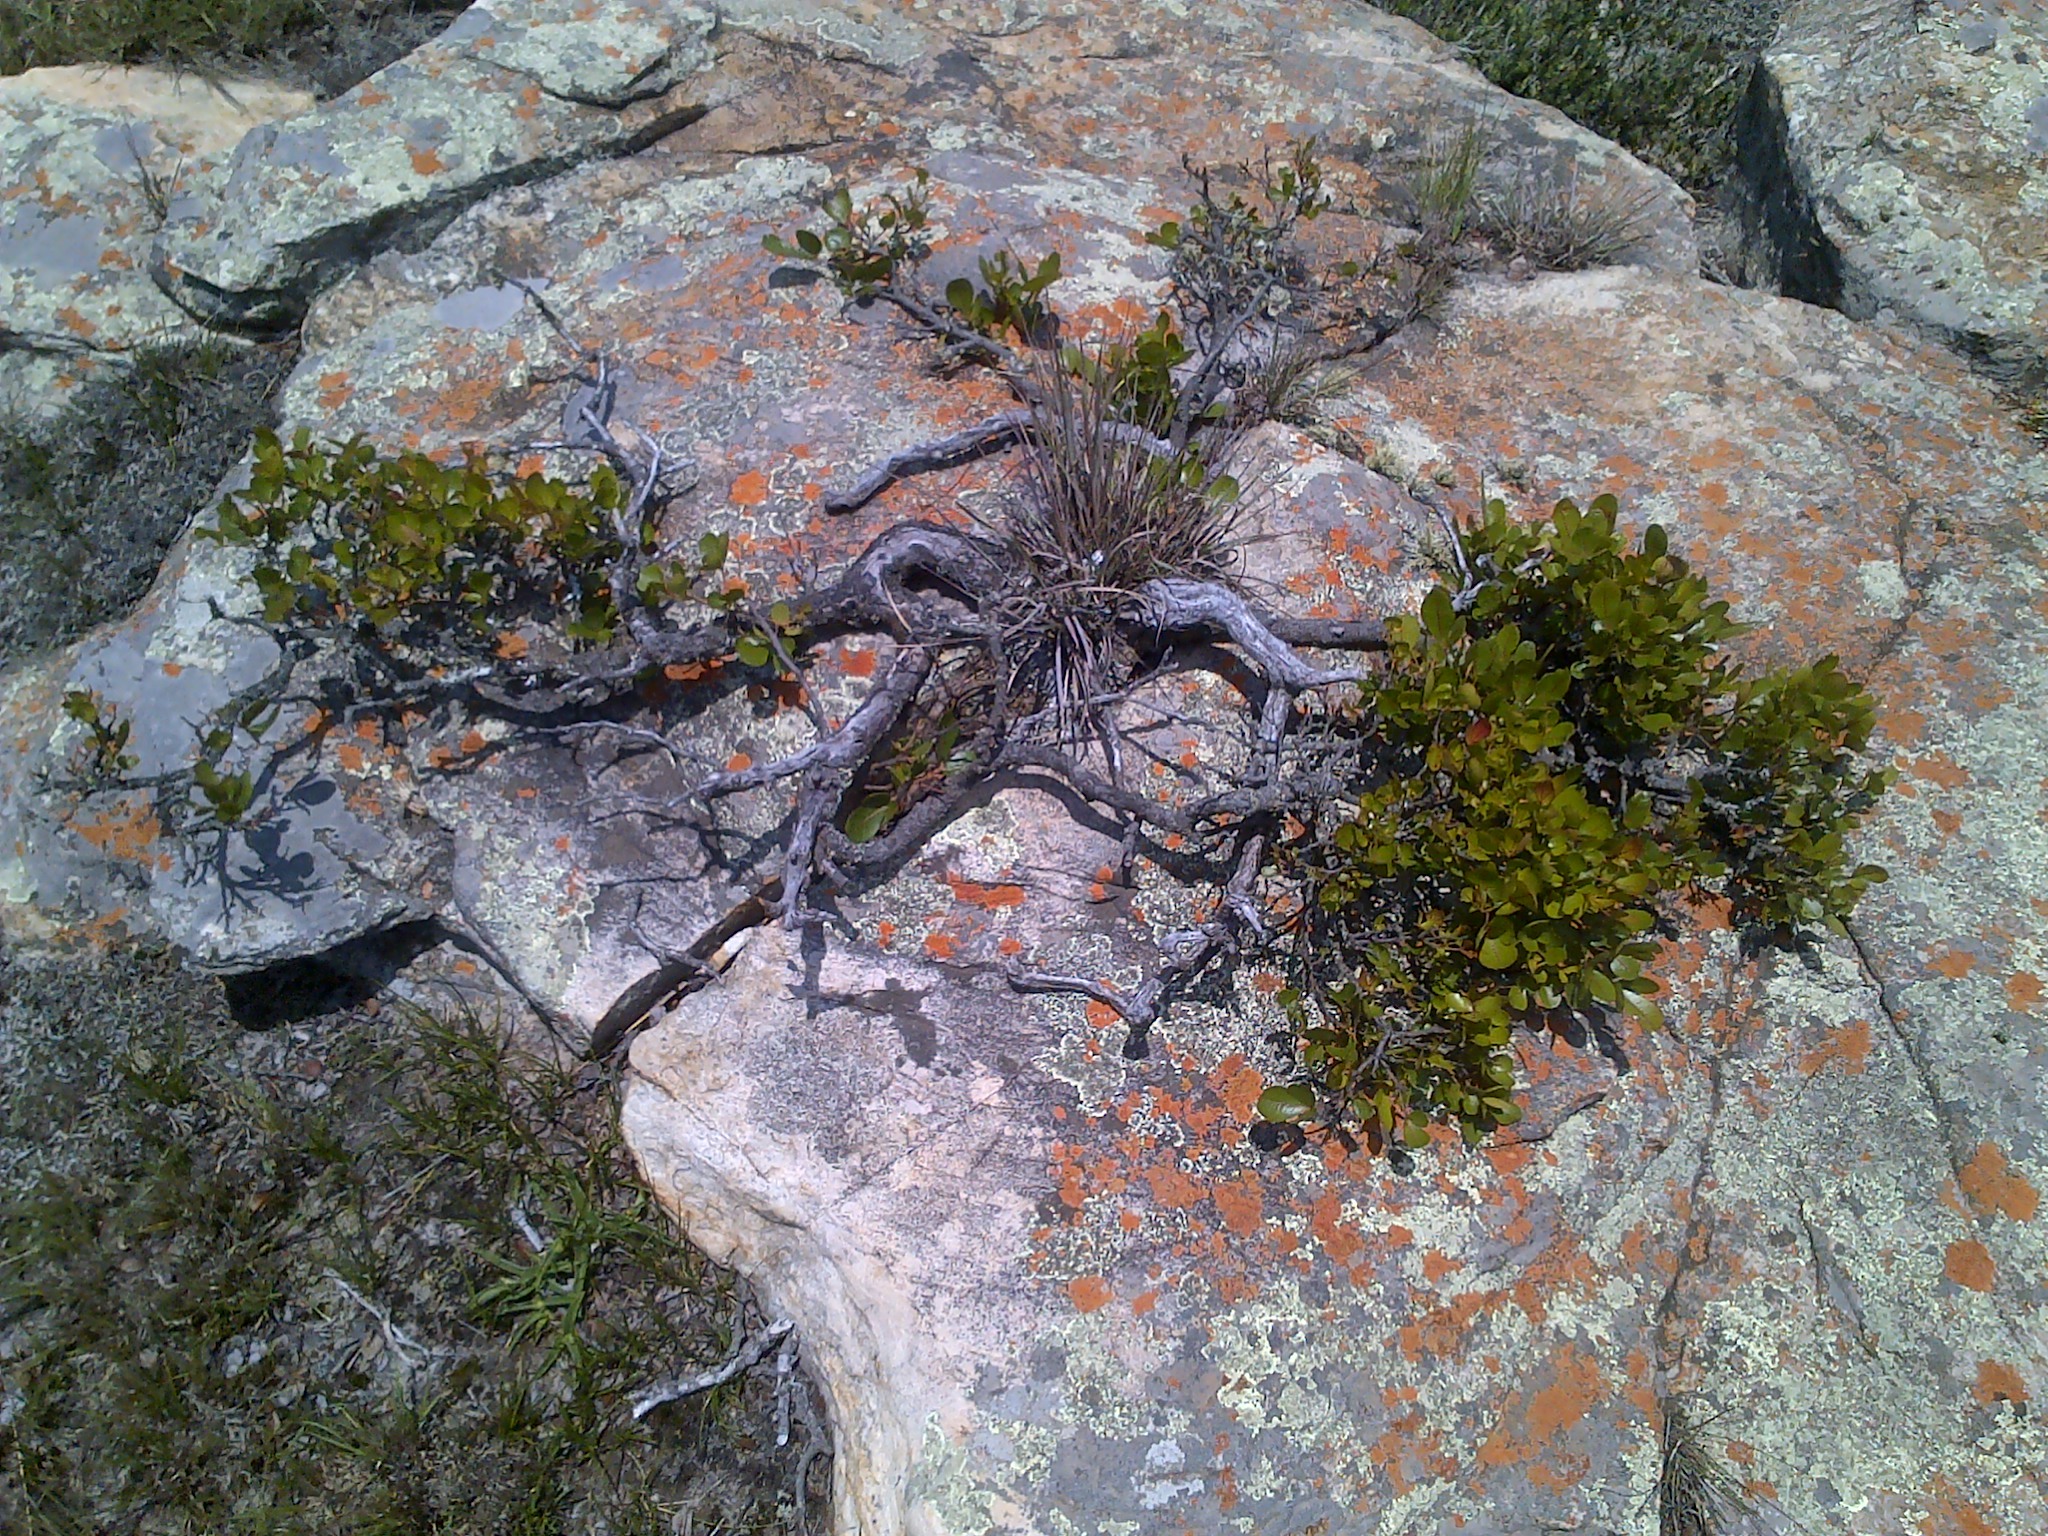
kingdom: Plantae
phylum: Tracheophyta
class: Magnoliopsida
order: Sapindales
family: Anacardiaceae
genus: Searsia
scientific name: Searsia tumulicola
